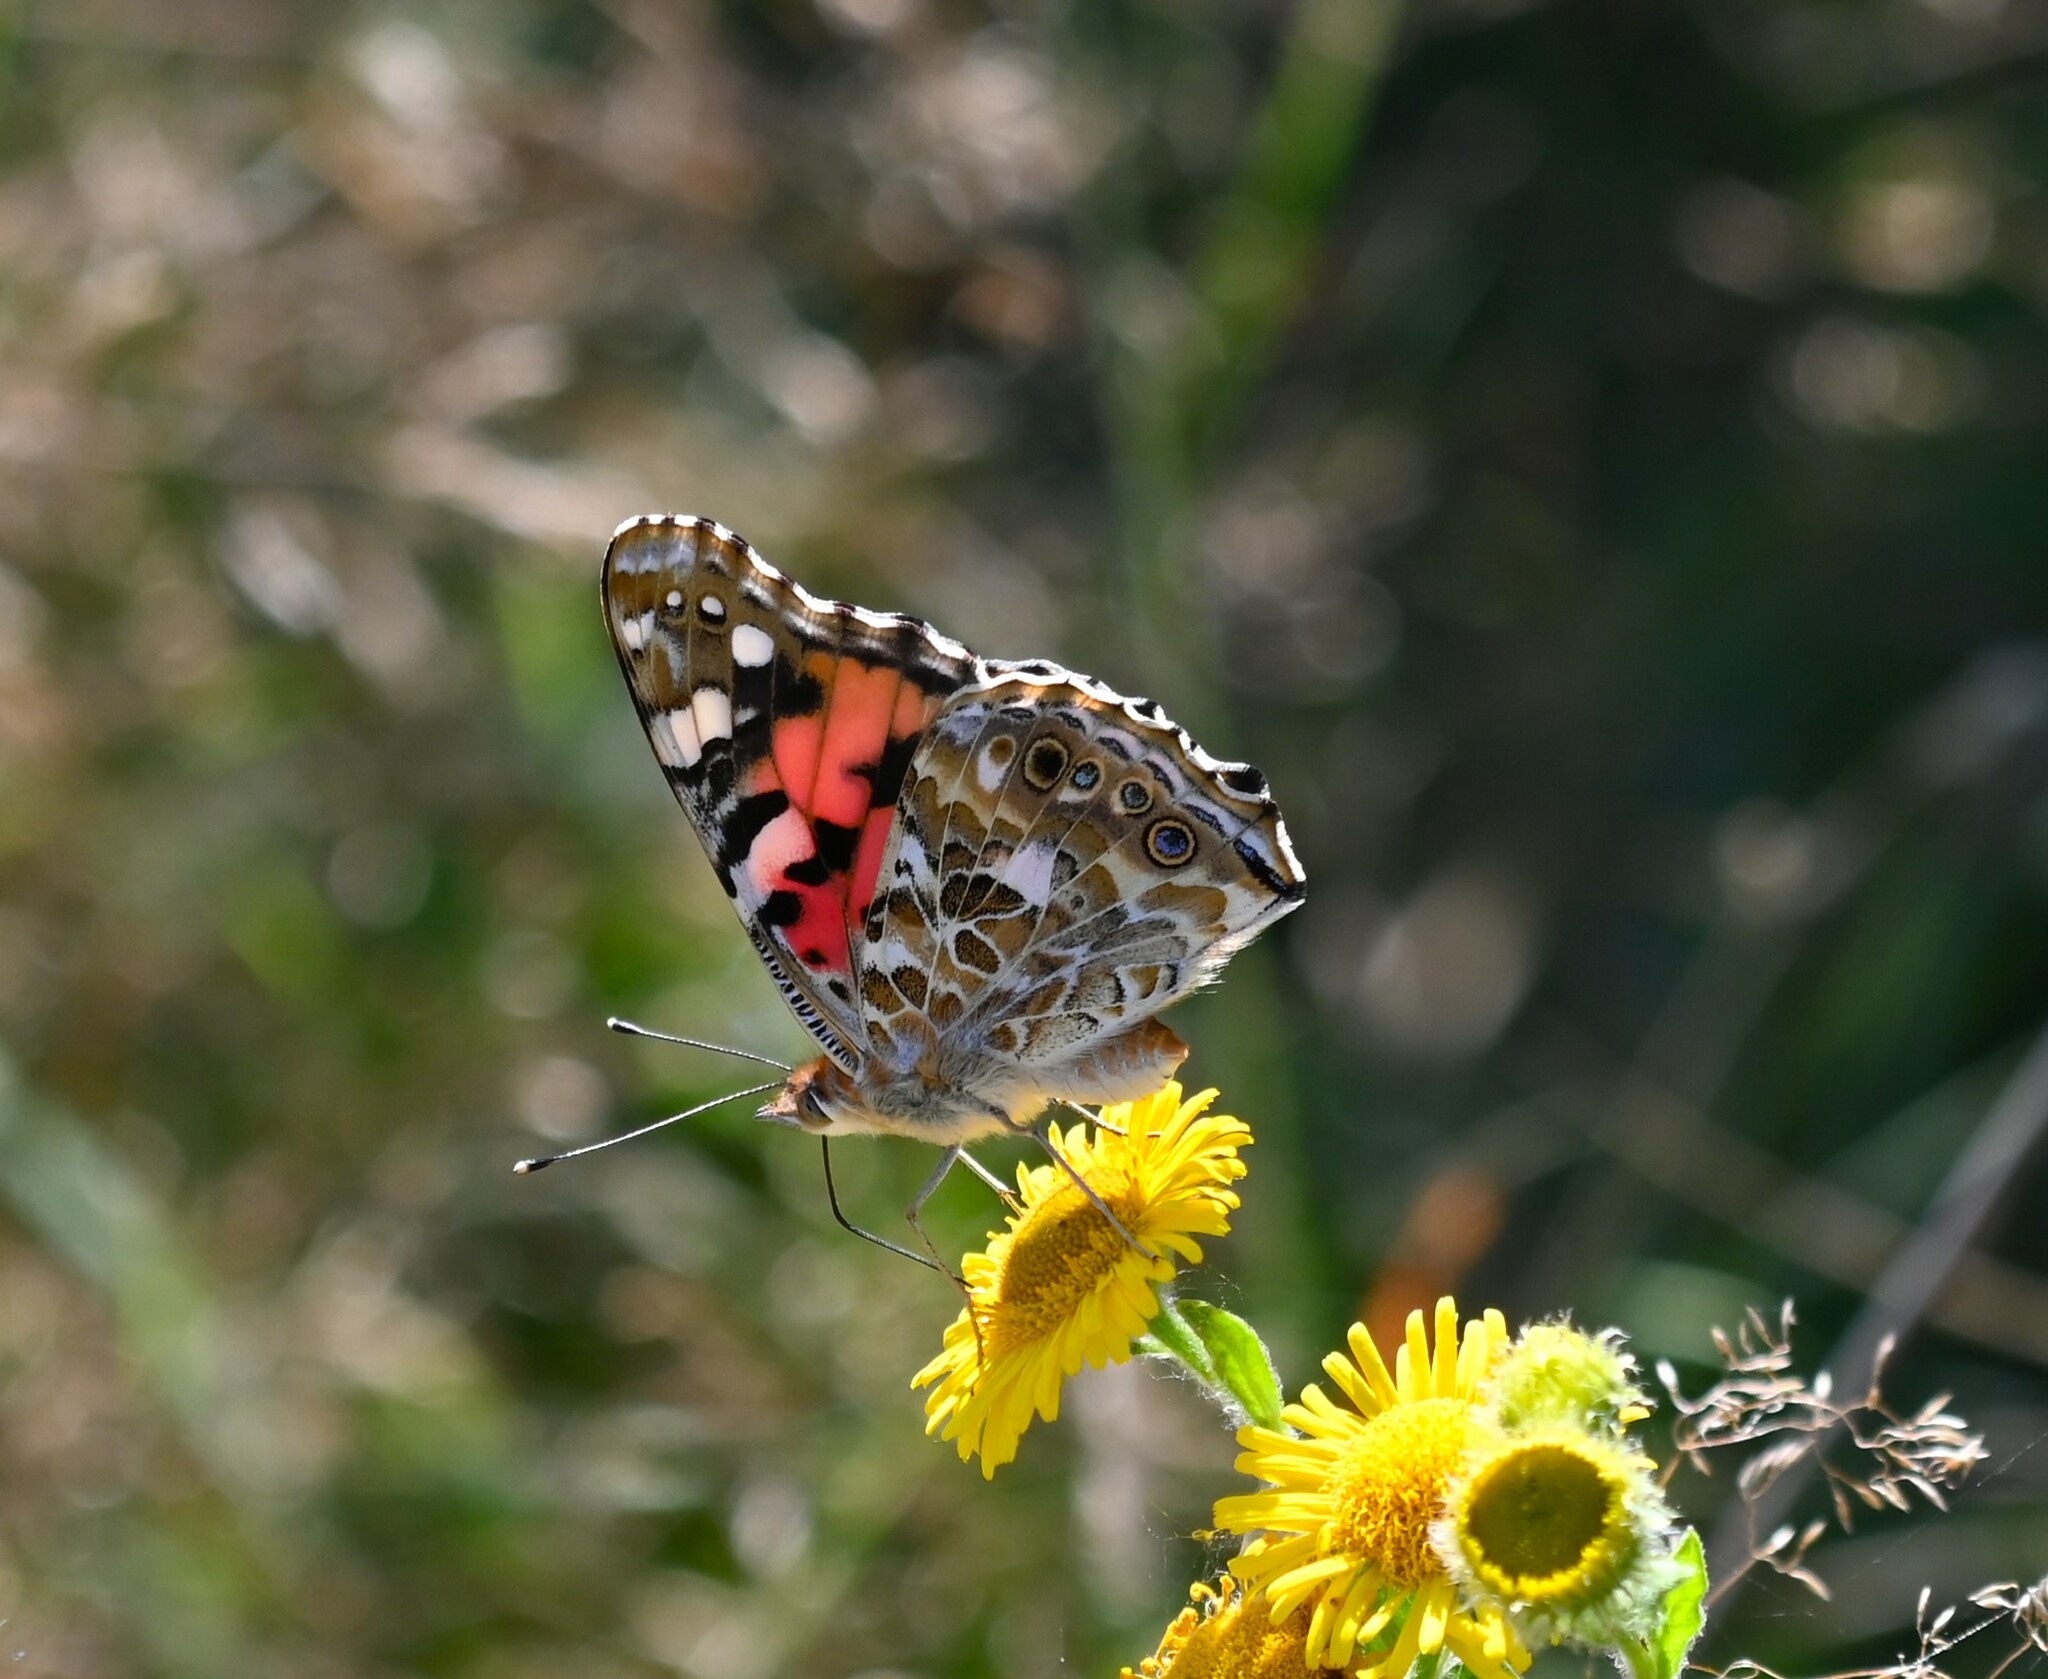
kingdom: Animalia
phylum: Arthropoda
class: Insecta
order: Lepidoptera
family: Nymphalidae
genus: Vanessa
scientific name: Vanessa cardui
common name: Painted lady
